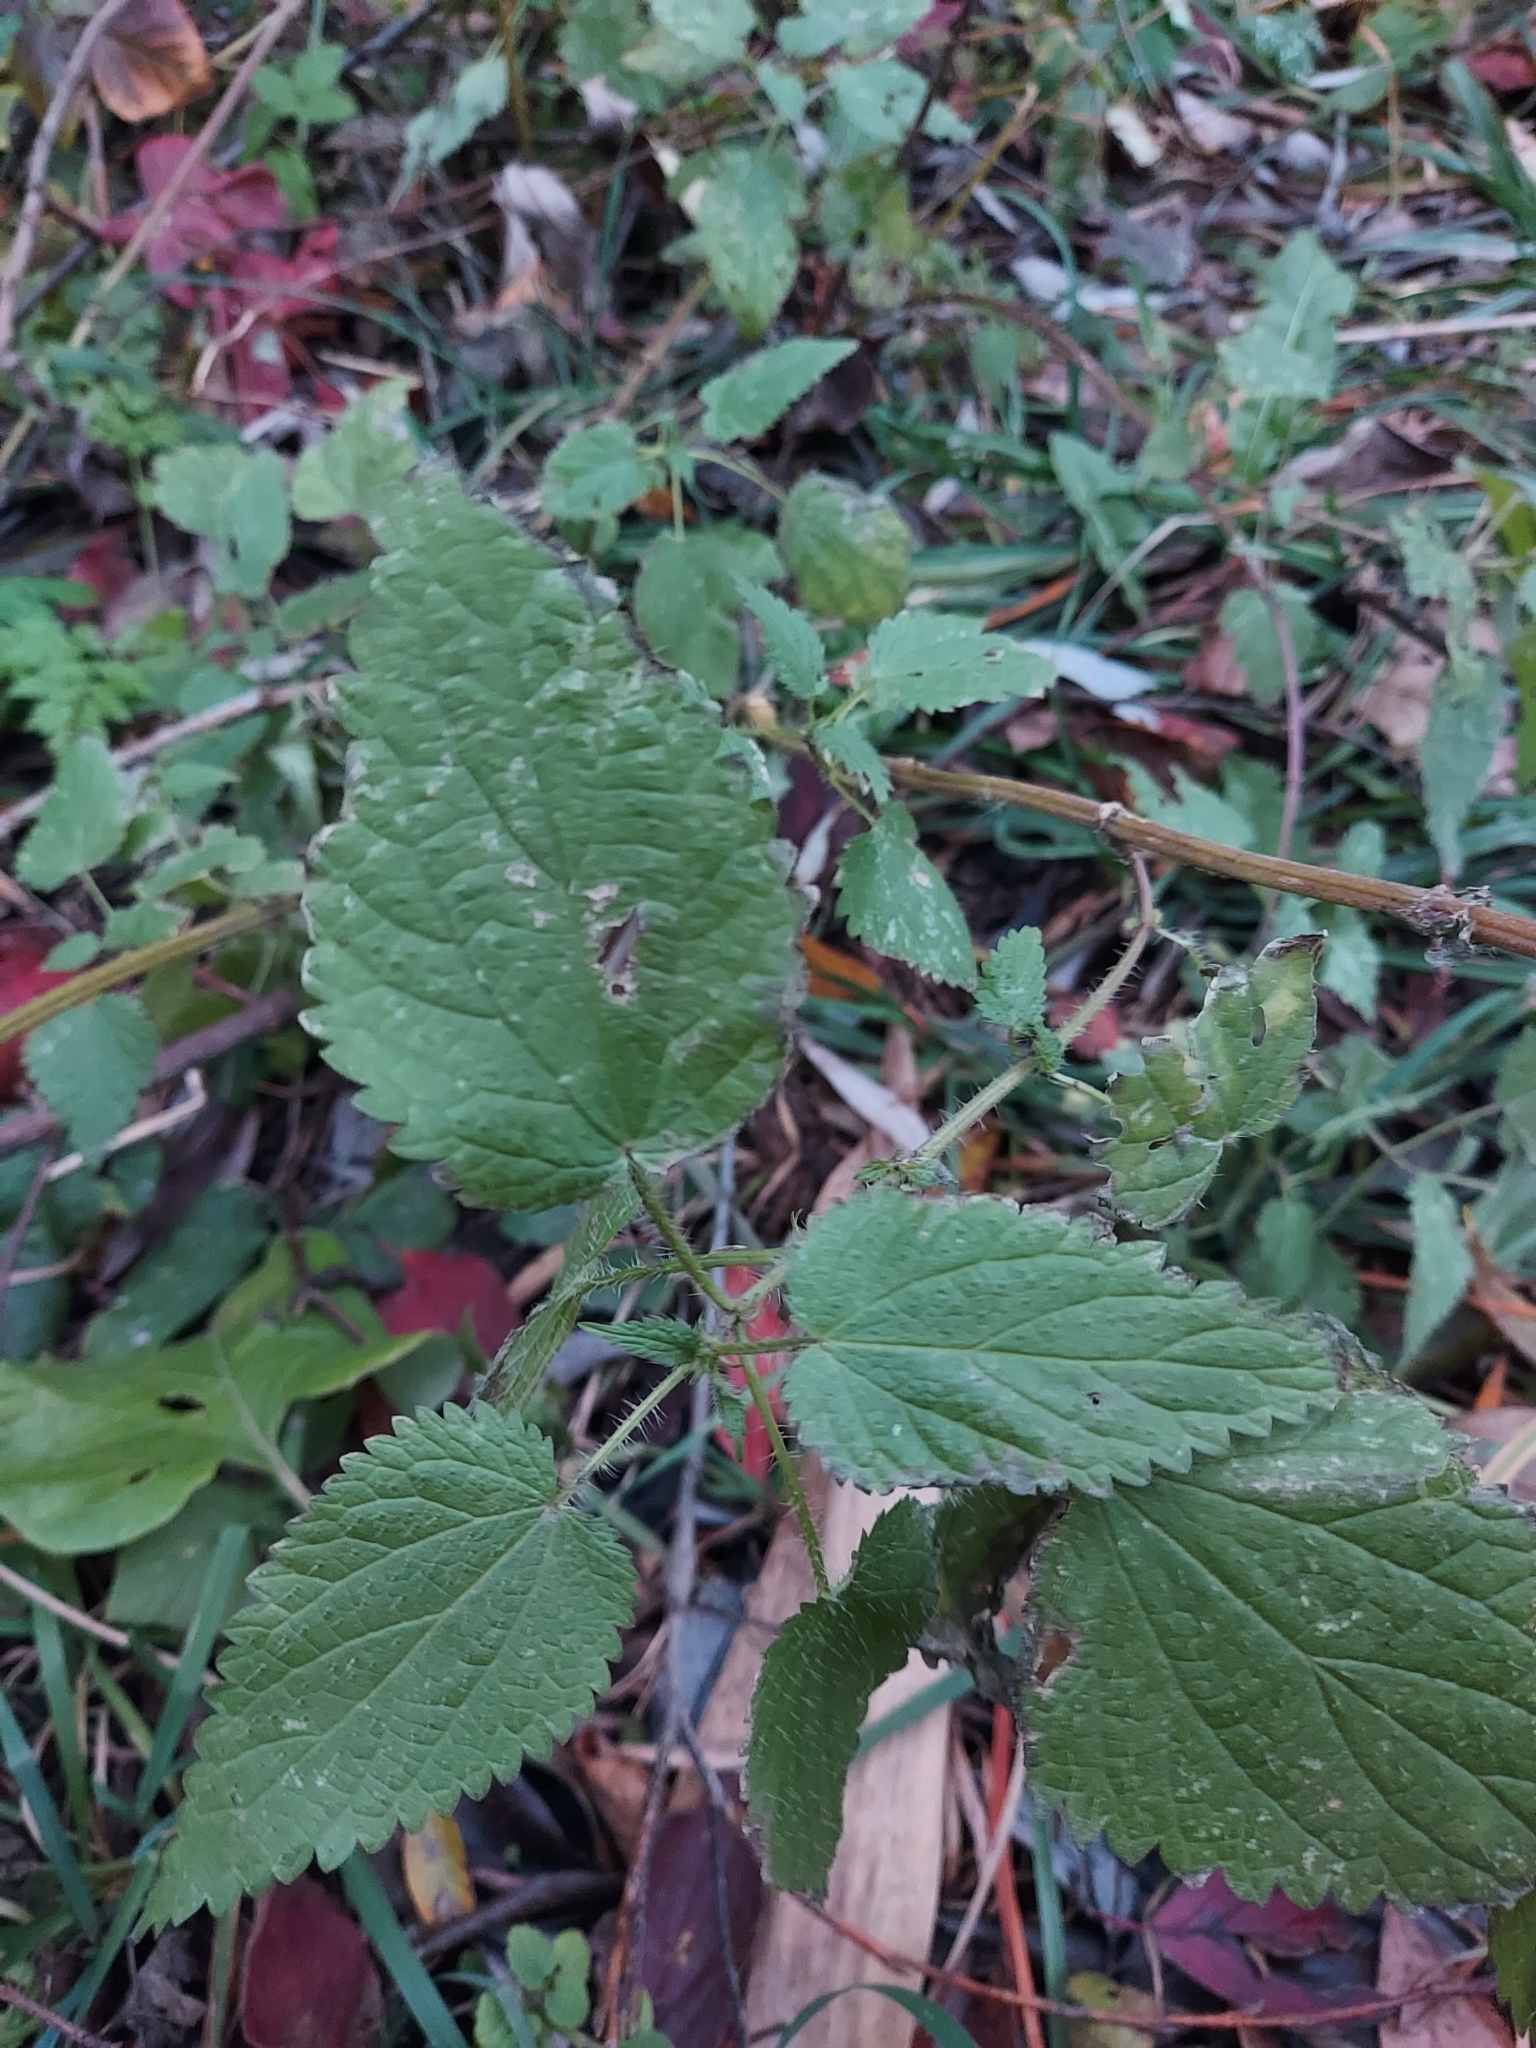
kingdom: Plantae
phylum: Tracheophyta
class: Magnoliopsida
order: Rosales
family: Urticaceae
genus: Urtica
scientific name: Urtica dioica
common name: Common nettle
